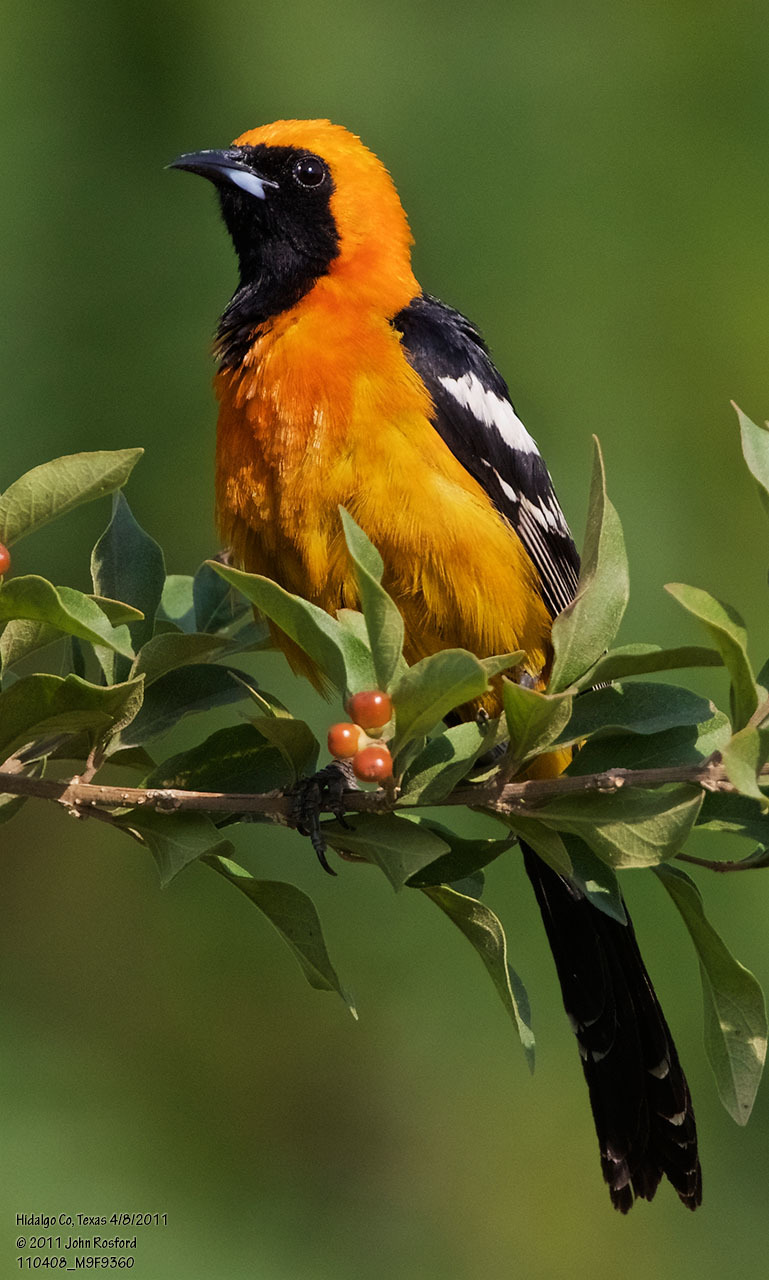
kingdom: Animalia
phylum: Chordata
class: Aves
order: Passeriformes
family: Icteridae
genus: Icterus
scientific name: Icterus cucullatus
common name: Hooded oriole
